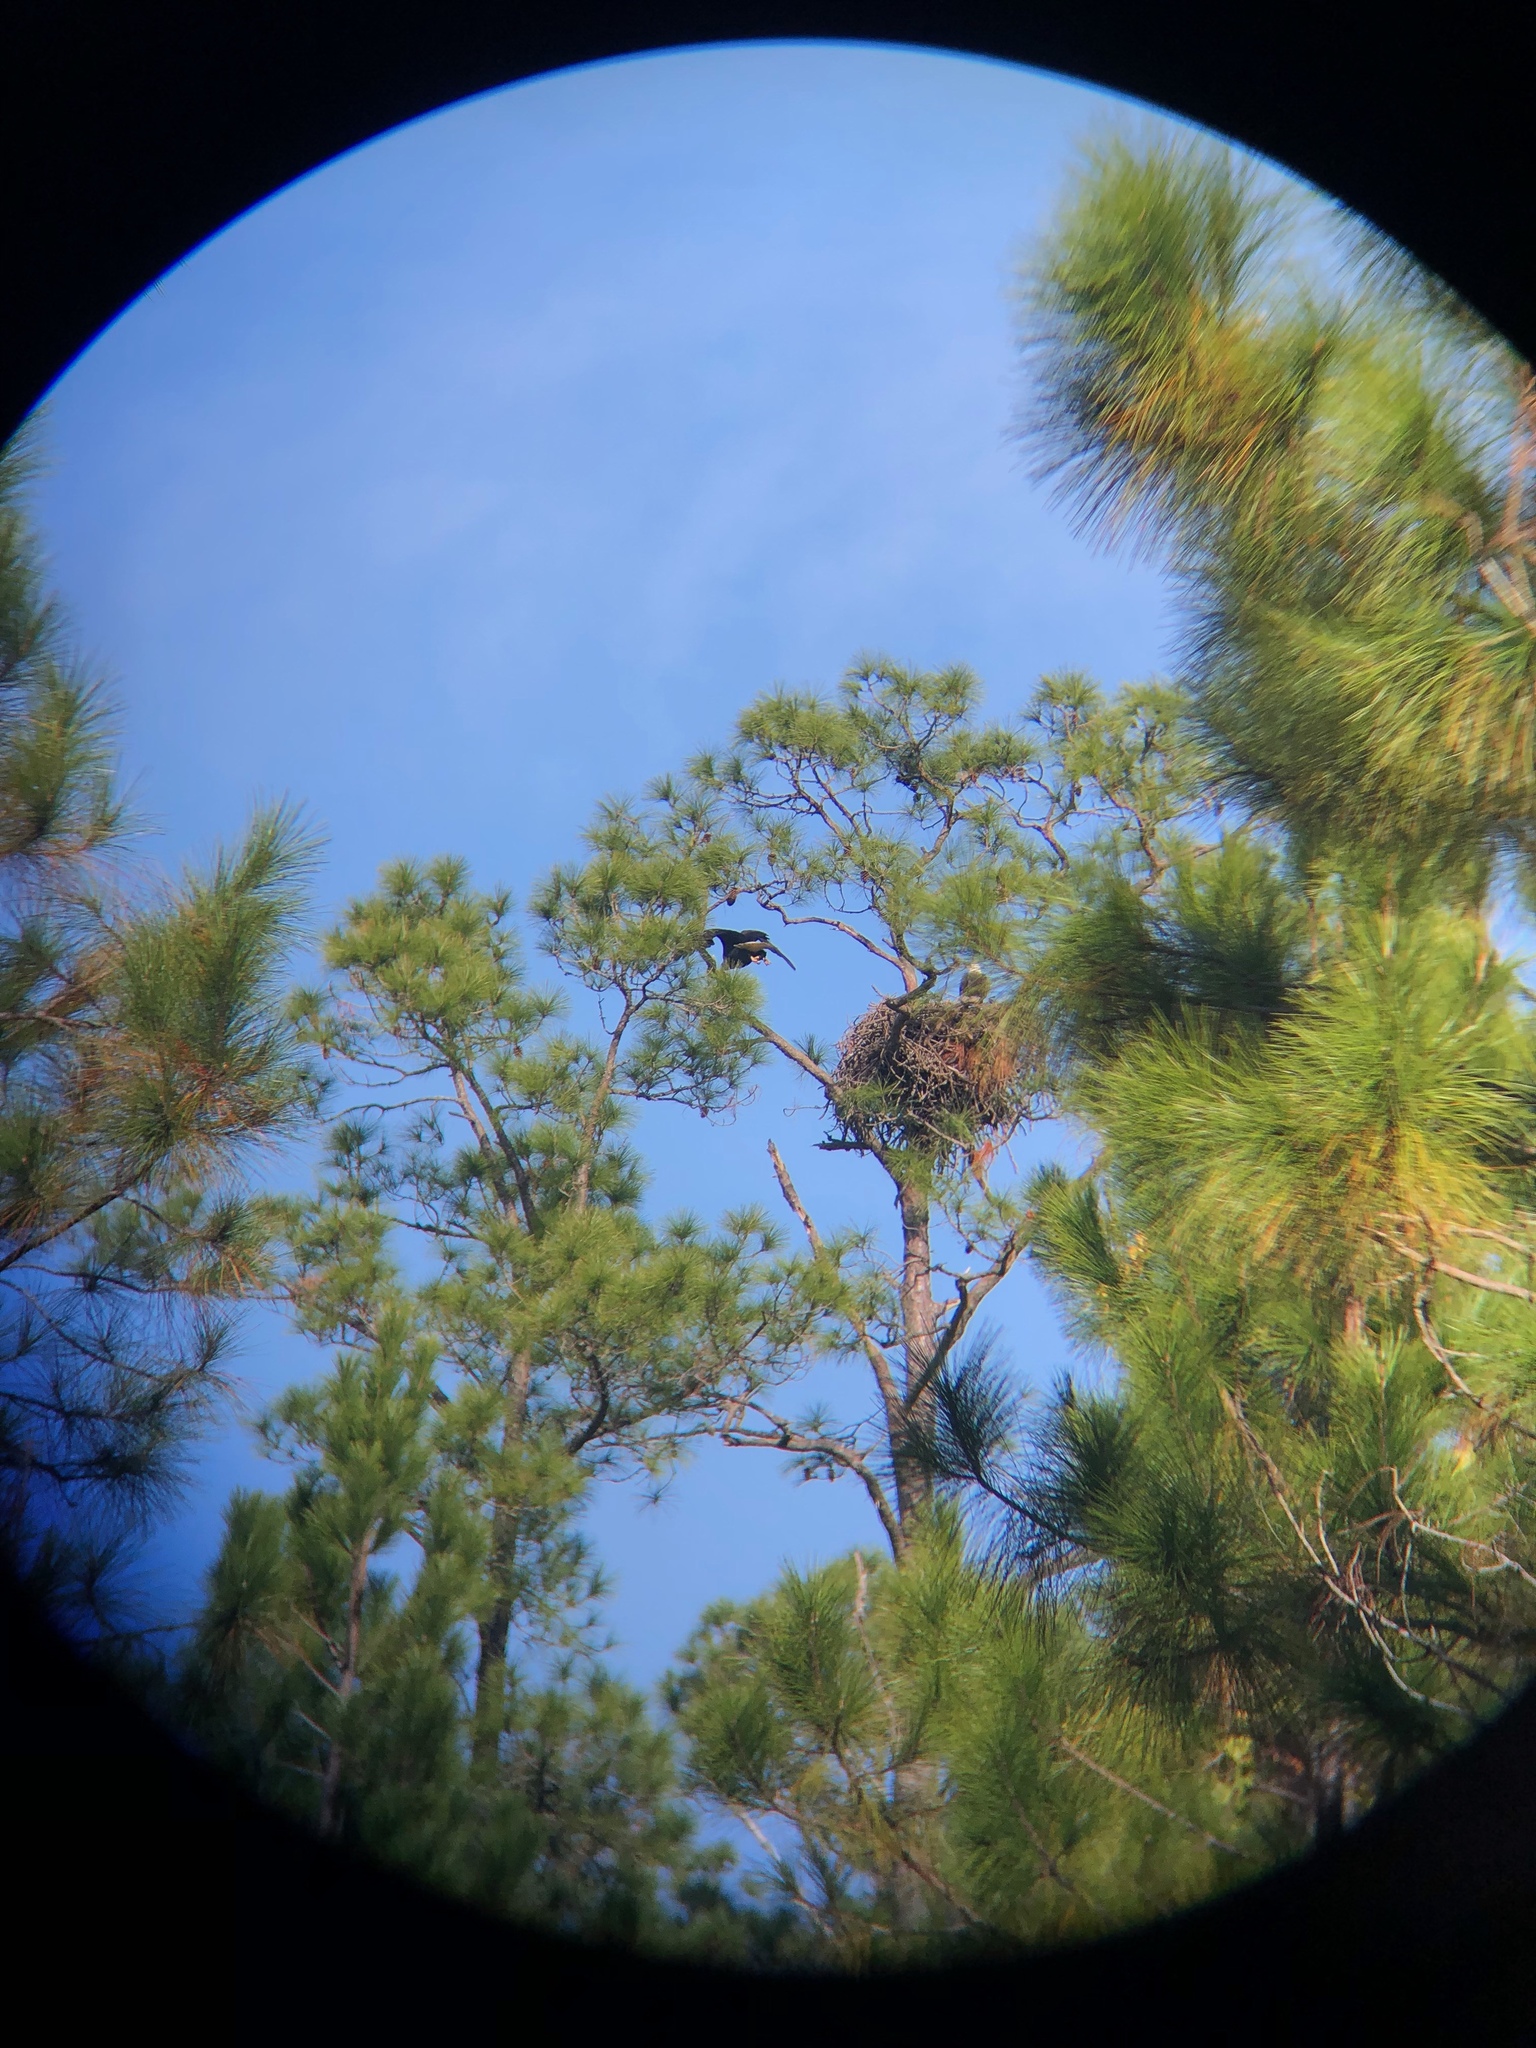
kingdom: Animalia
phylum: Chordata
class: Aves
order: Accipitriformes
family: Accipitridae
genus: Haliaeetus
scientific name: Haliaeetus leucocephalus
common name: Bald eagle
